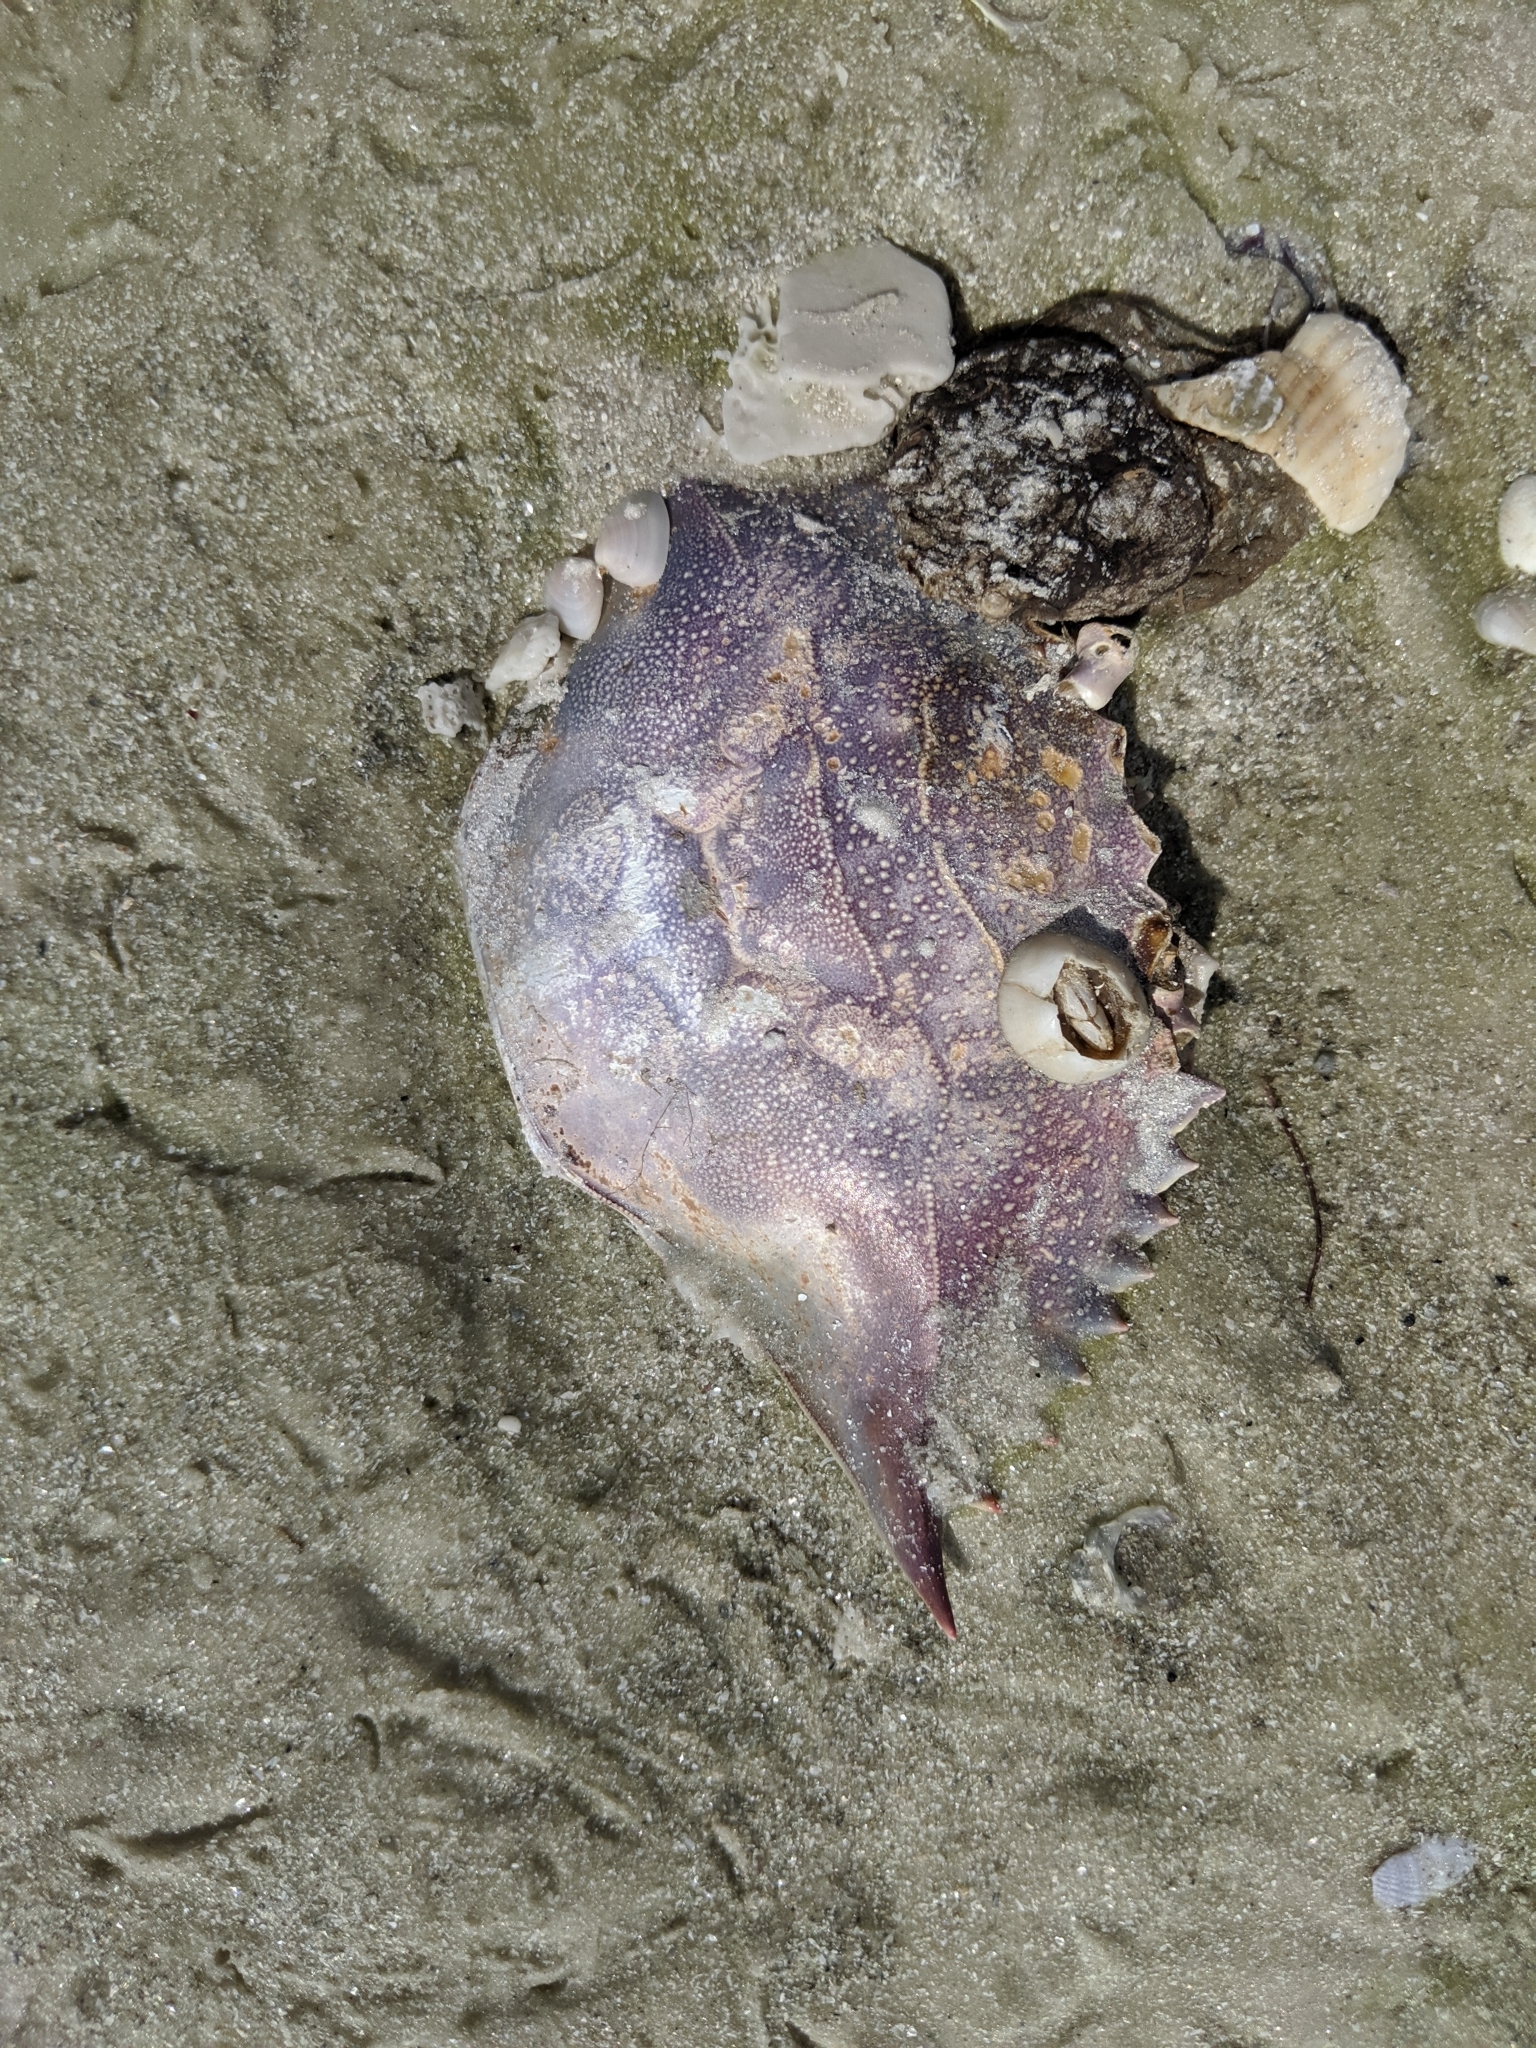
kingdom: Animalia
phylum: Arthropoda
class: Malacostraca
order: Decapoda
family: Portunidae
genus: Callinectes
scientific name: Callinectes sapidus
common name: Blue crab
